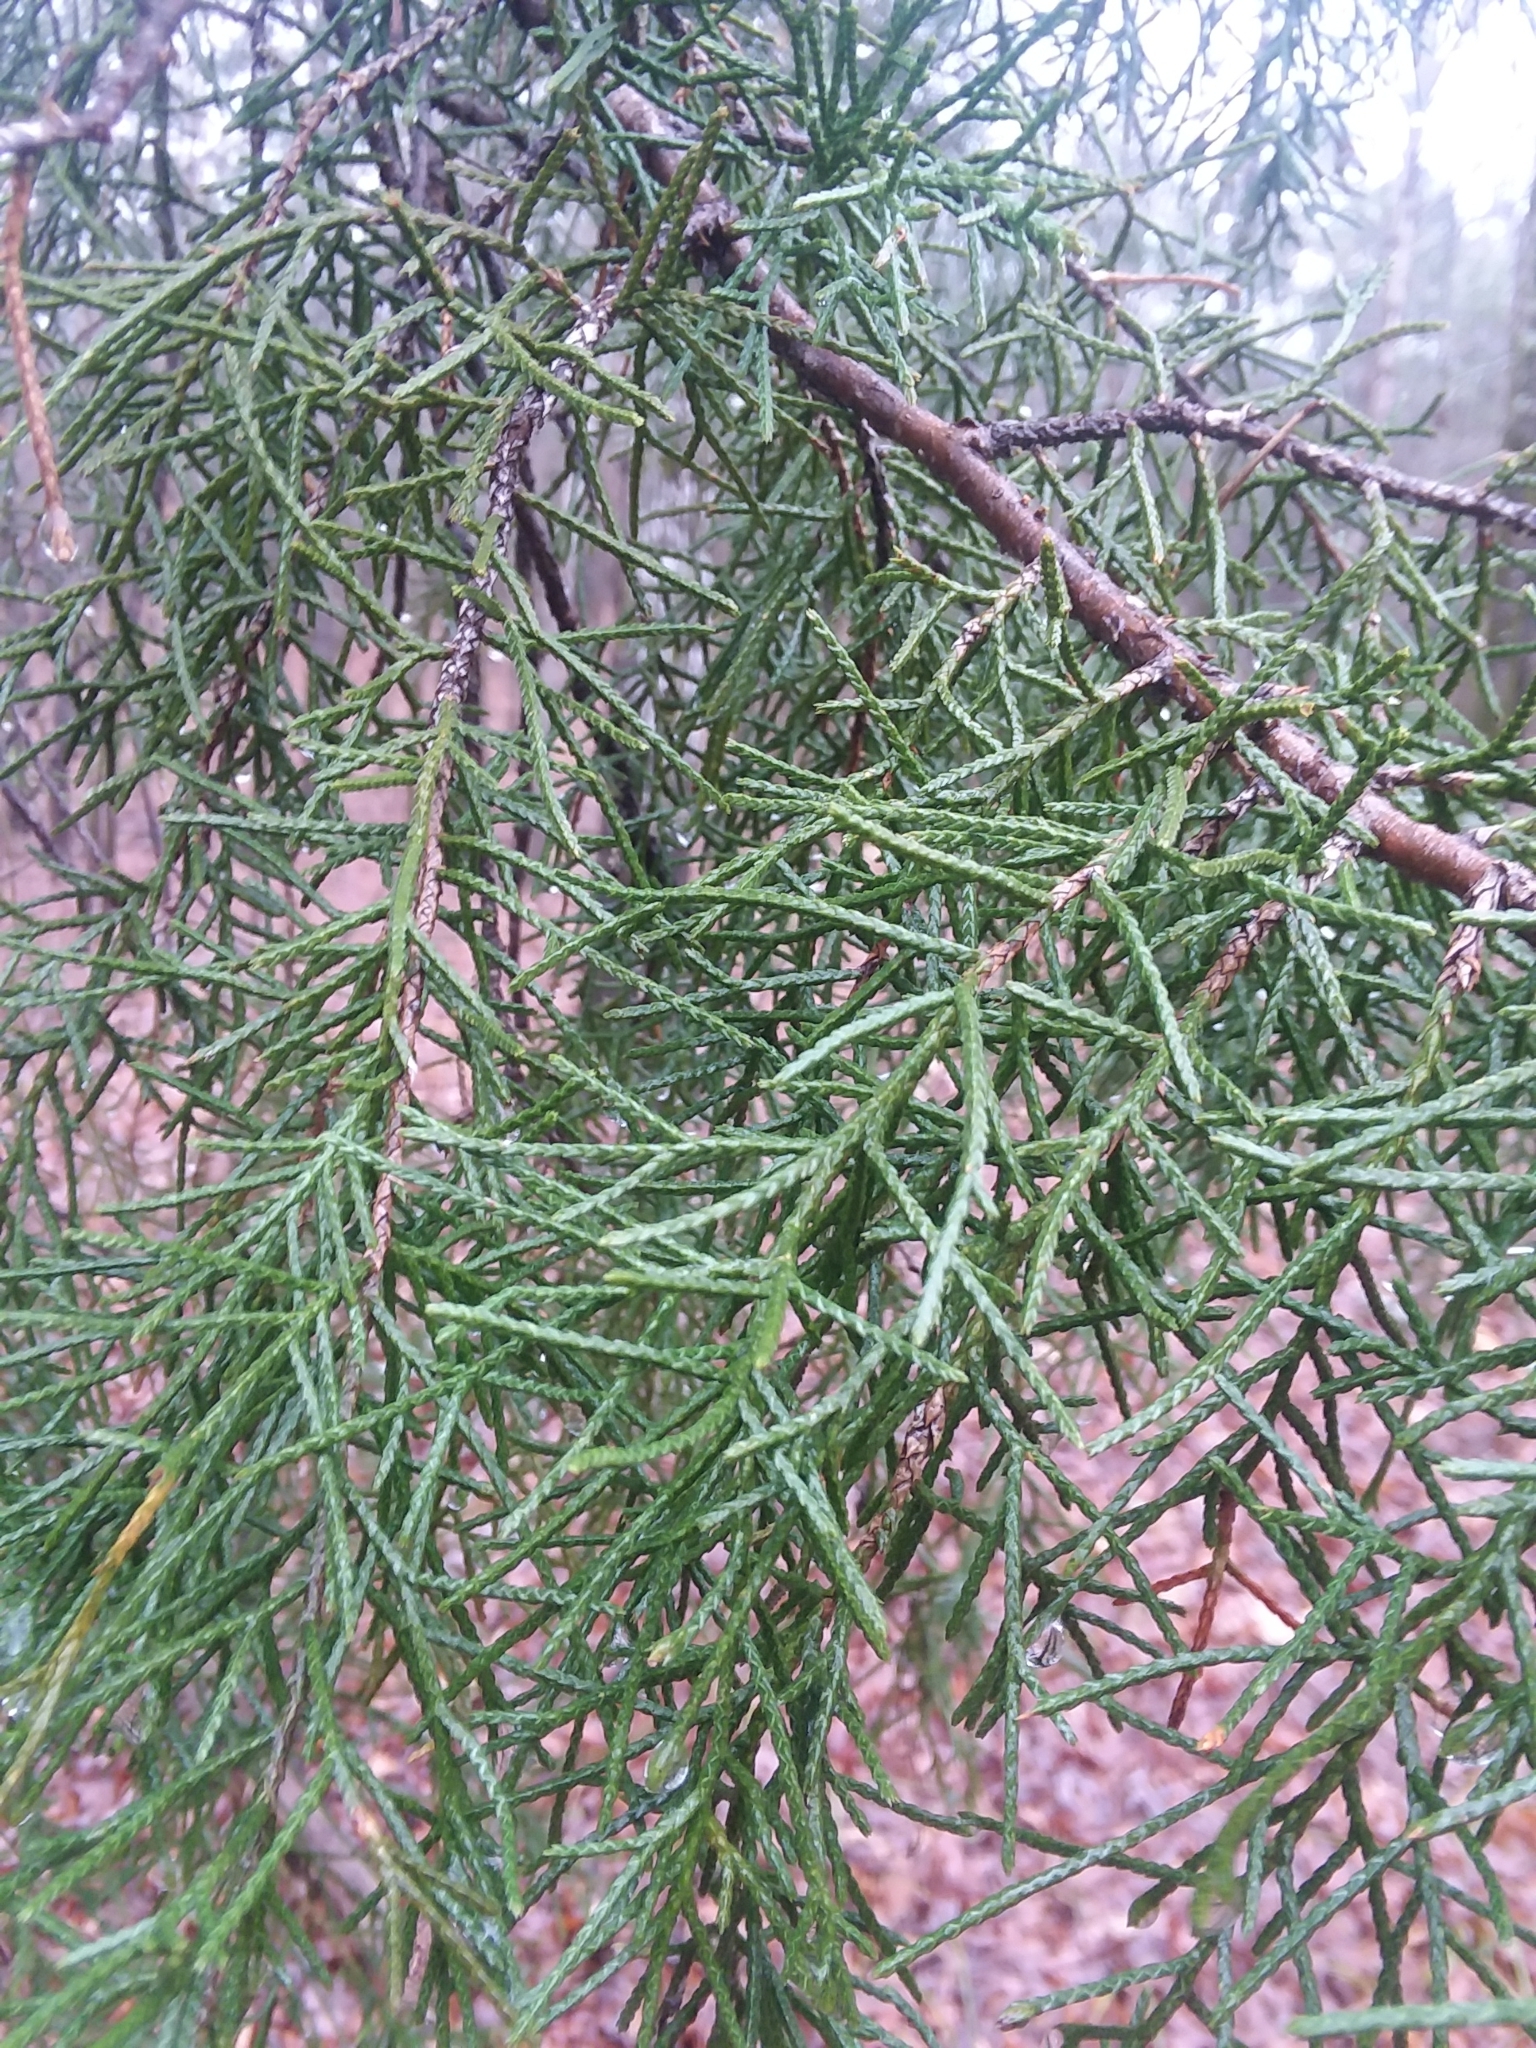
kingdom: Plantae
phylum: Tracheophyta
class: Pinopsida
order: Pinales
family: Cupressaceae
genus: Juniperus
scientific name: Juniperus virginiana
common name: Red juniper
